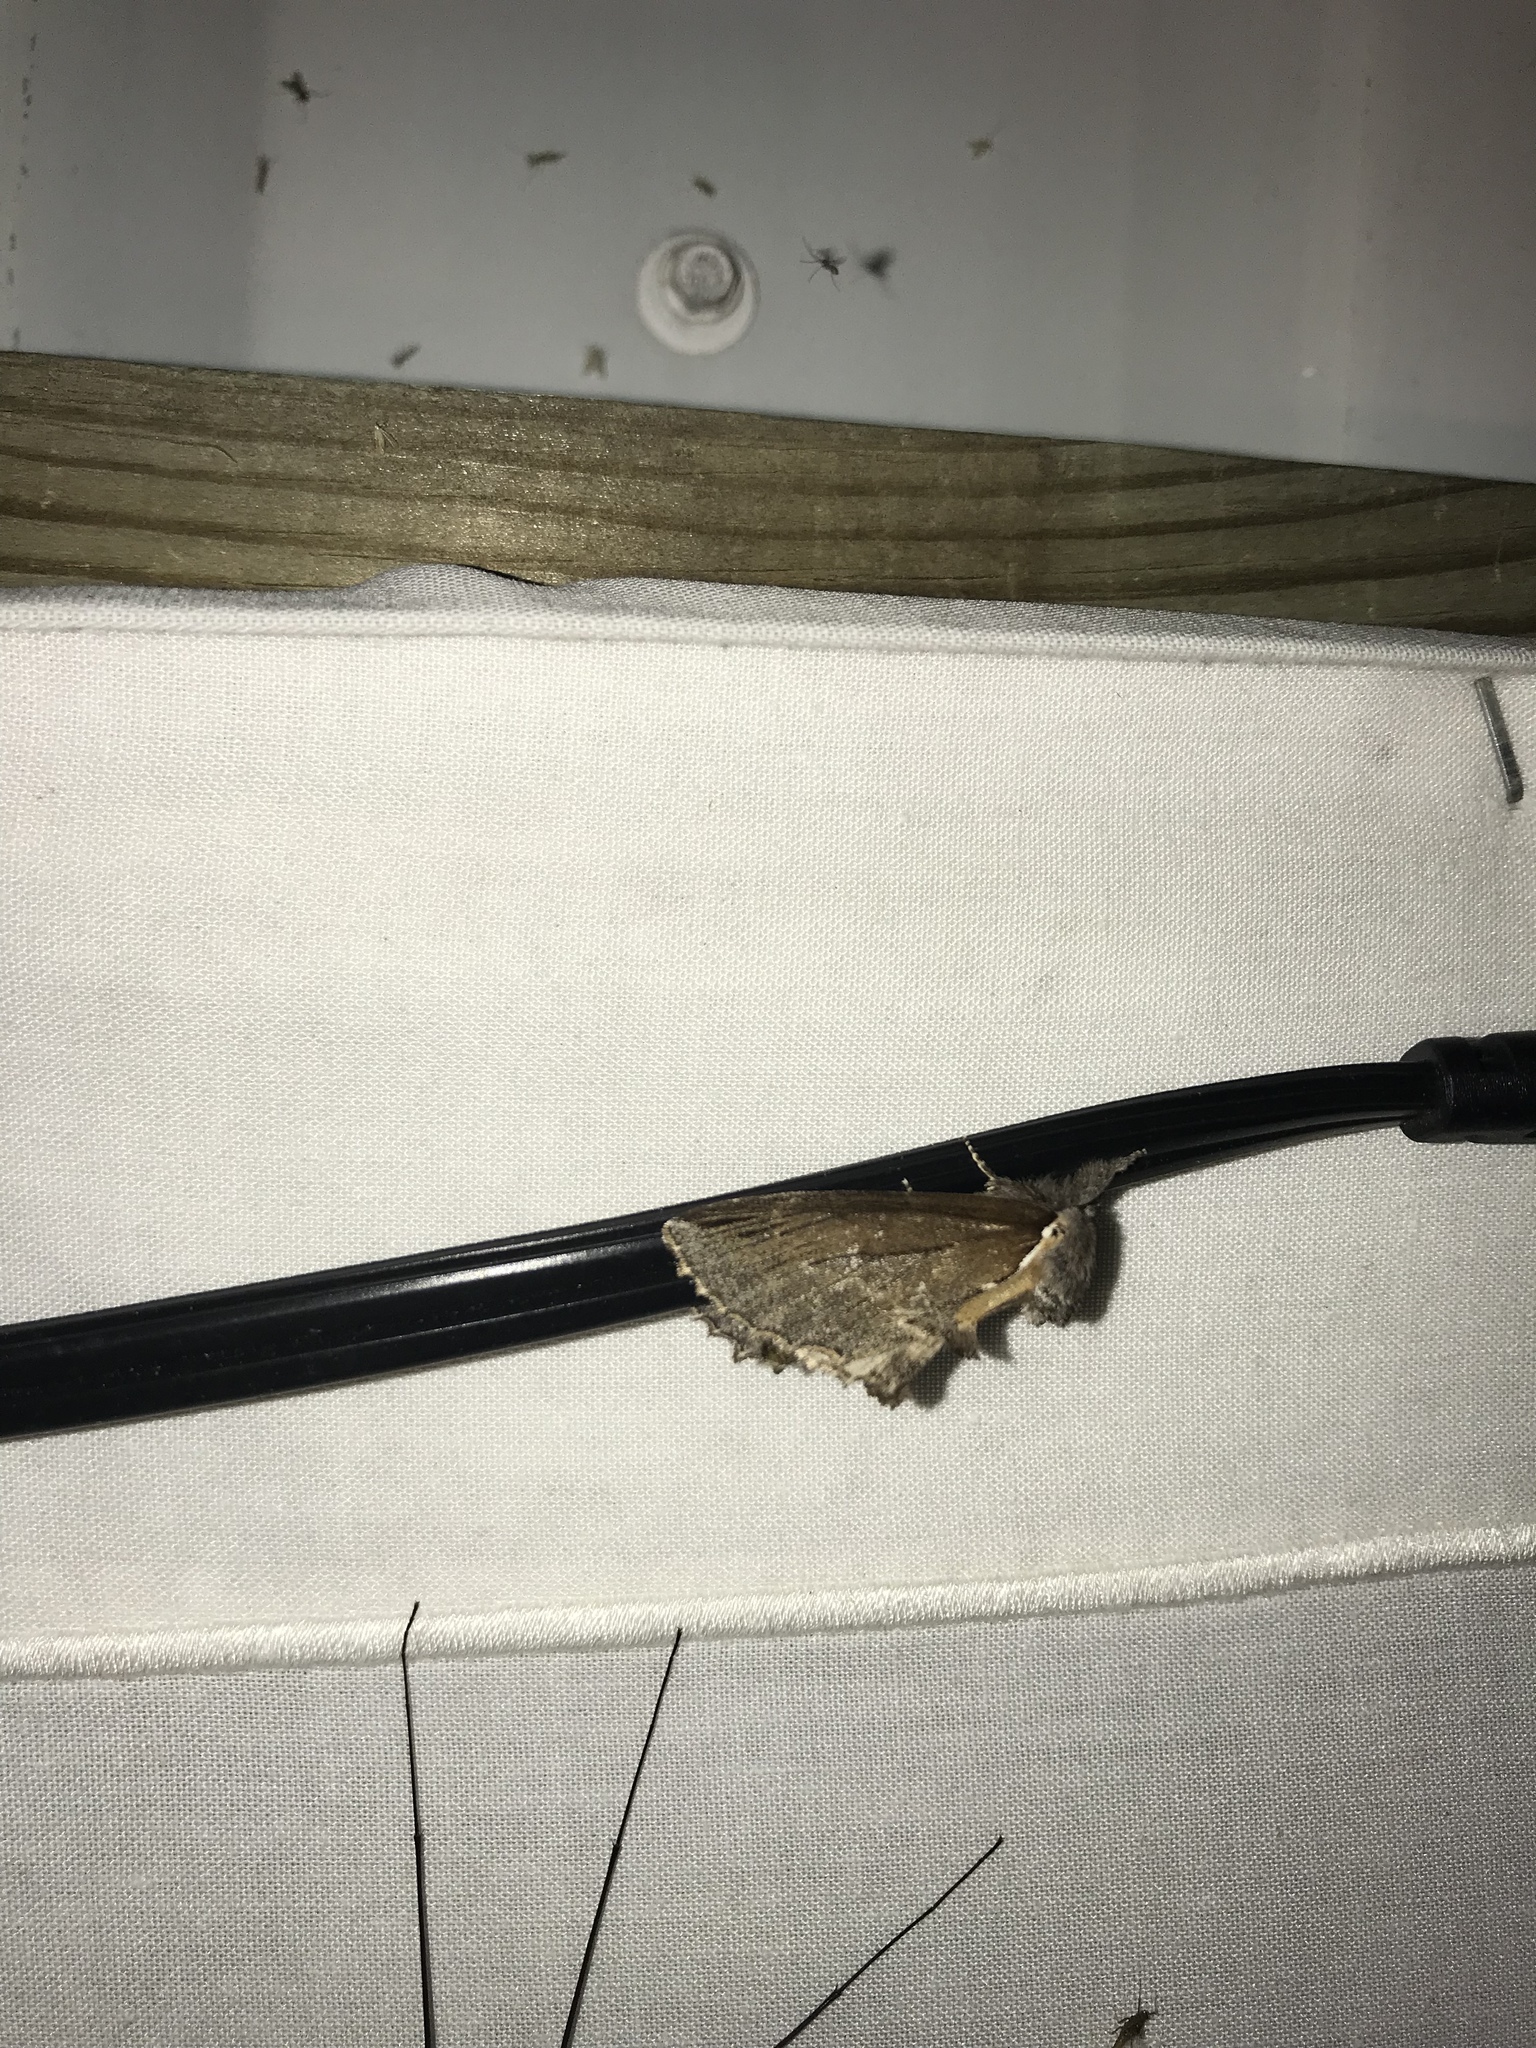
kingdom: Animalia
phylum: Arthropoda
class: Insecta
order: Lepidoptera
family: Notodontidae
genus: Pheosidea
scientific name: Pheosidea elegans
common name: Elegant prominent
